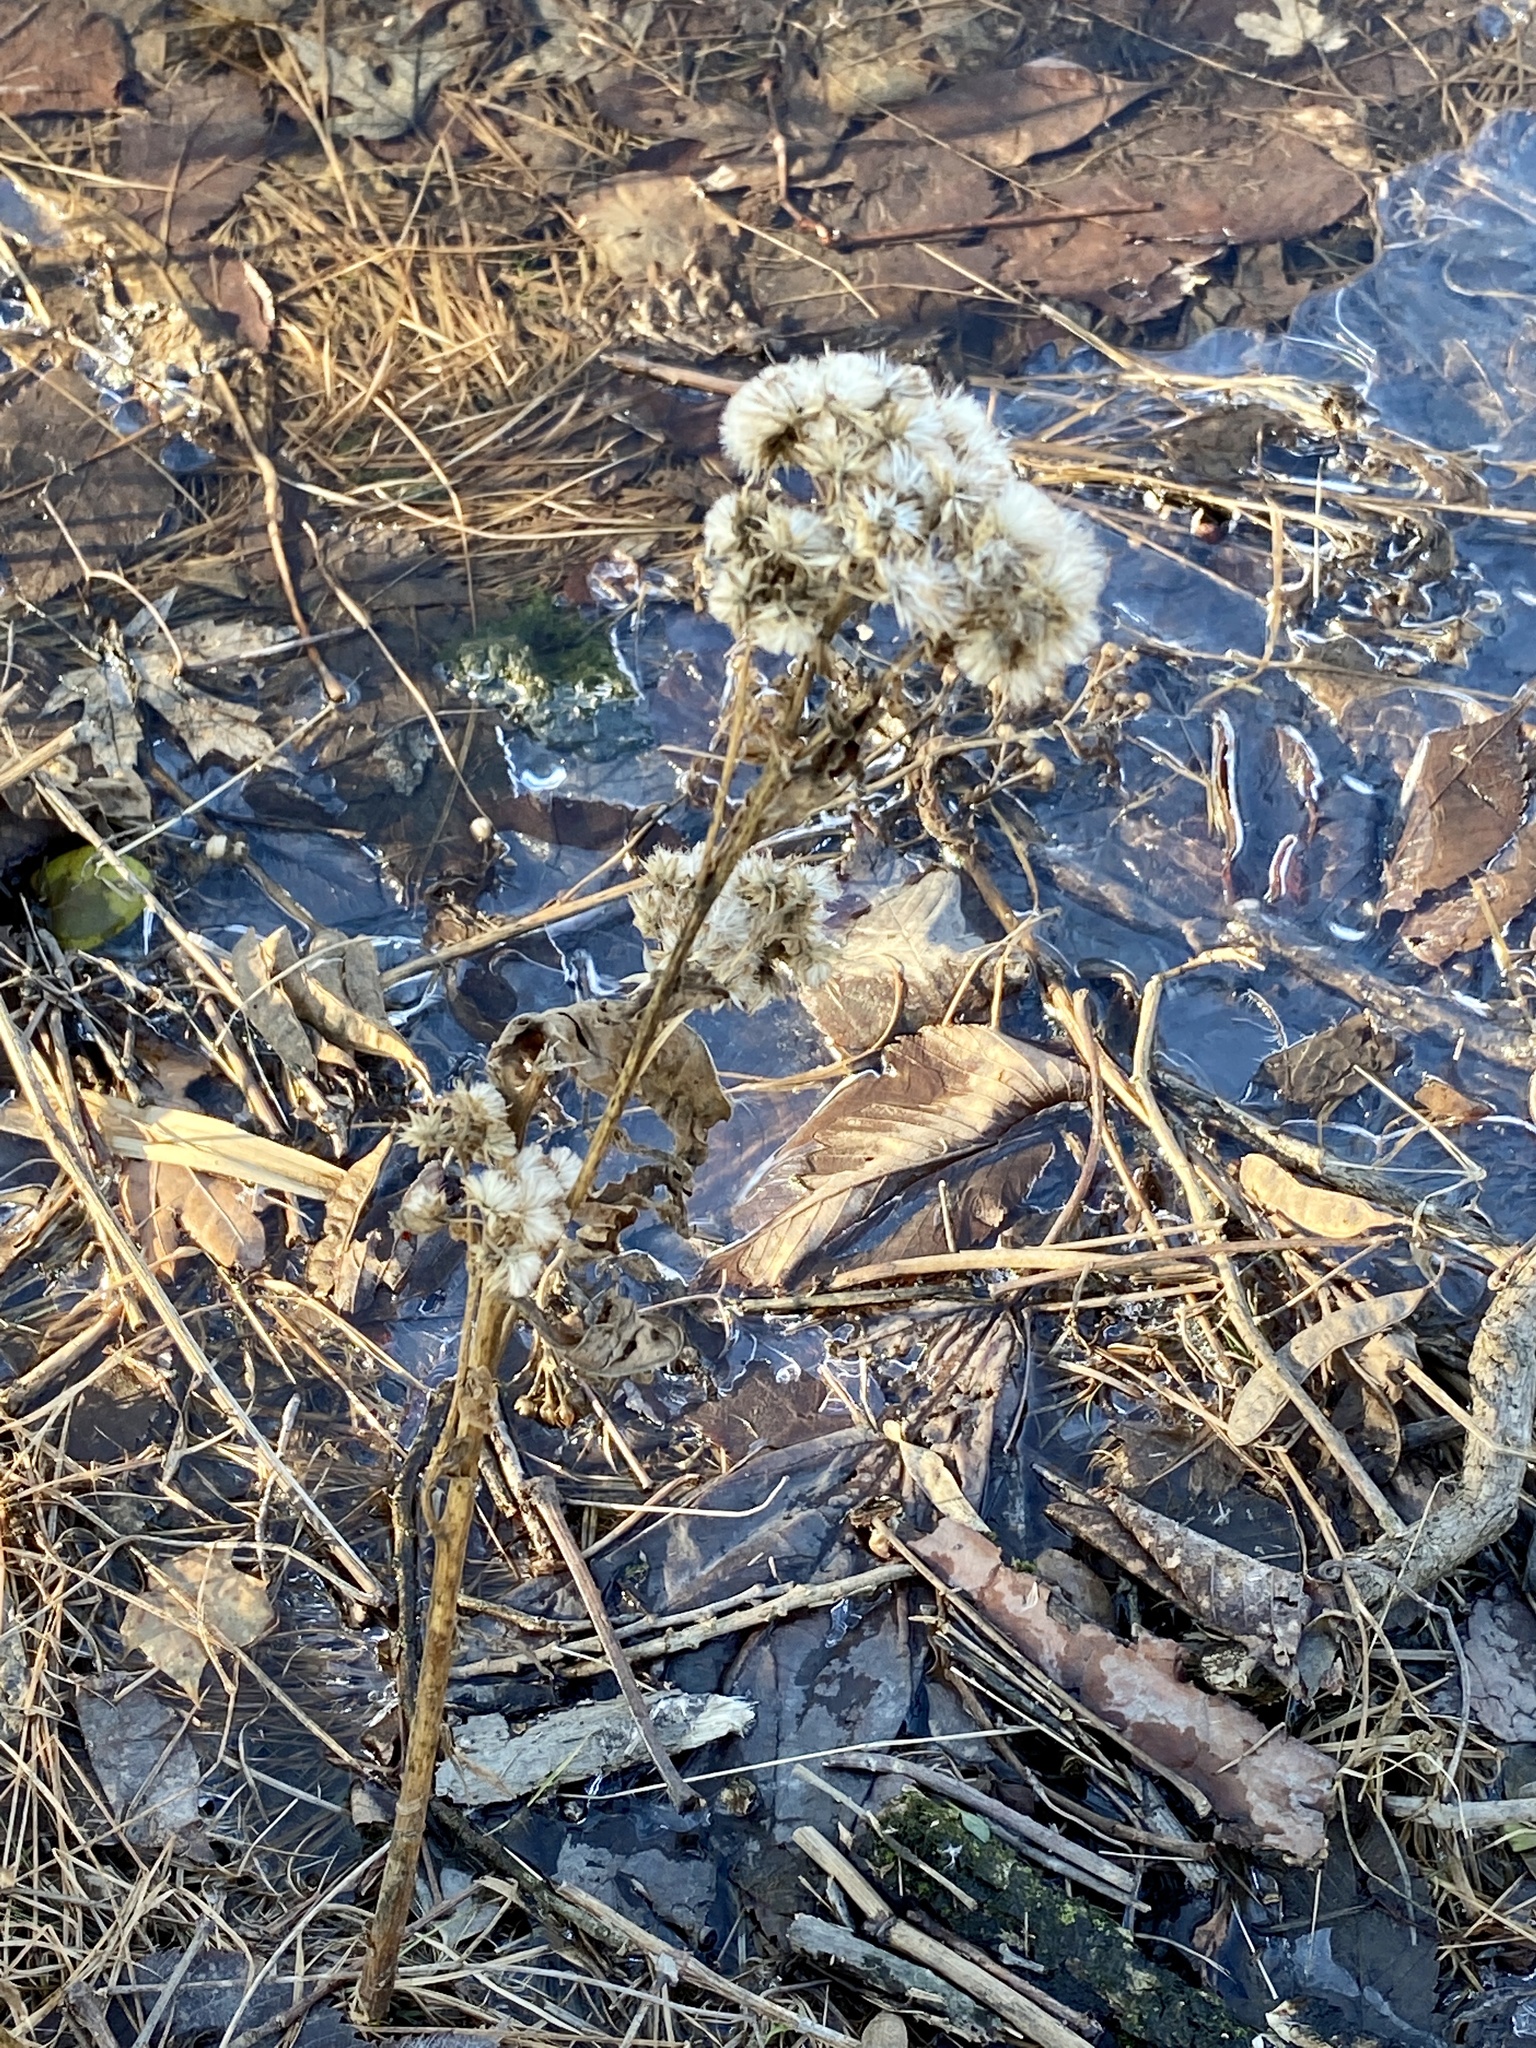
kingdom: Plantae
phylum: Tracheophyta
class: Magnoliopsida
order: Asterales
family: Asteraceae
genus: Pluchea
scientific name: Pluchea odorata
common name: Saltmarsh fleabane
